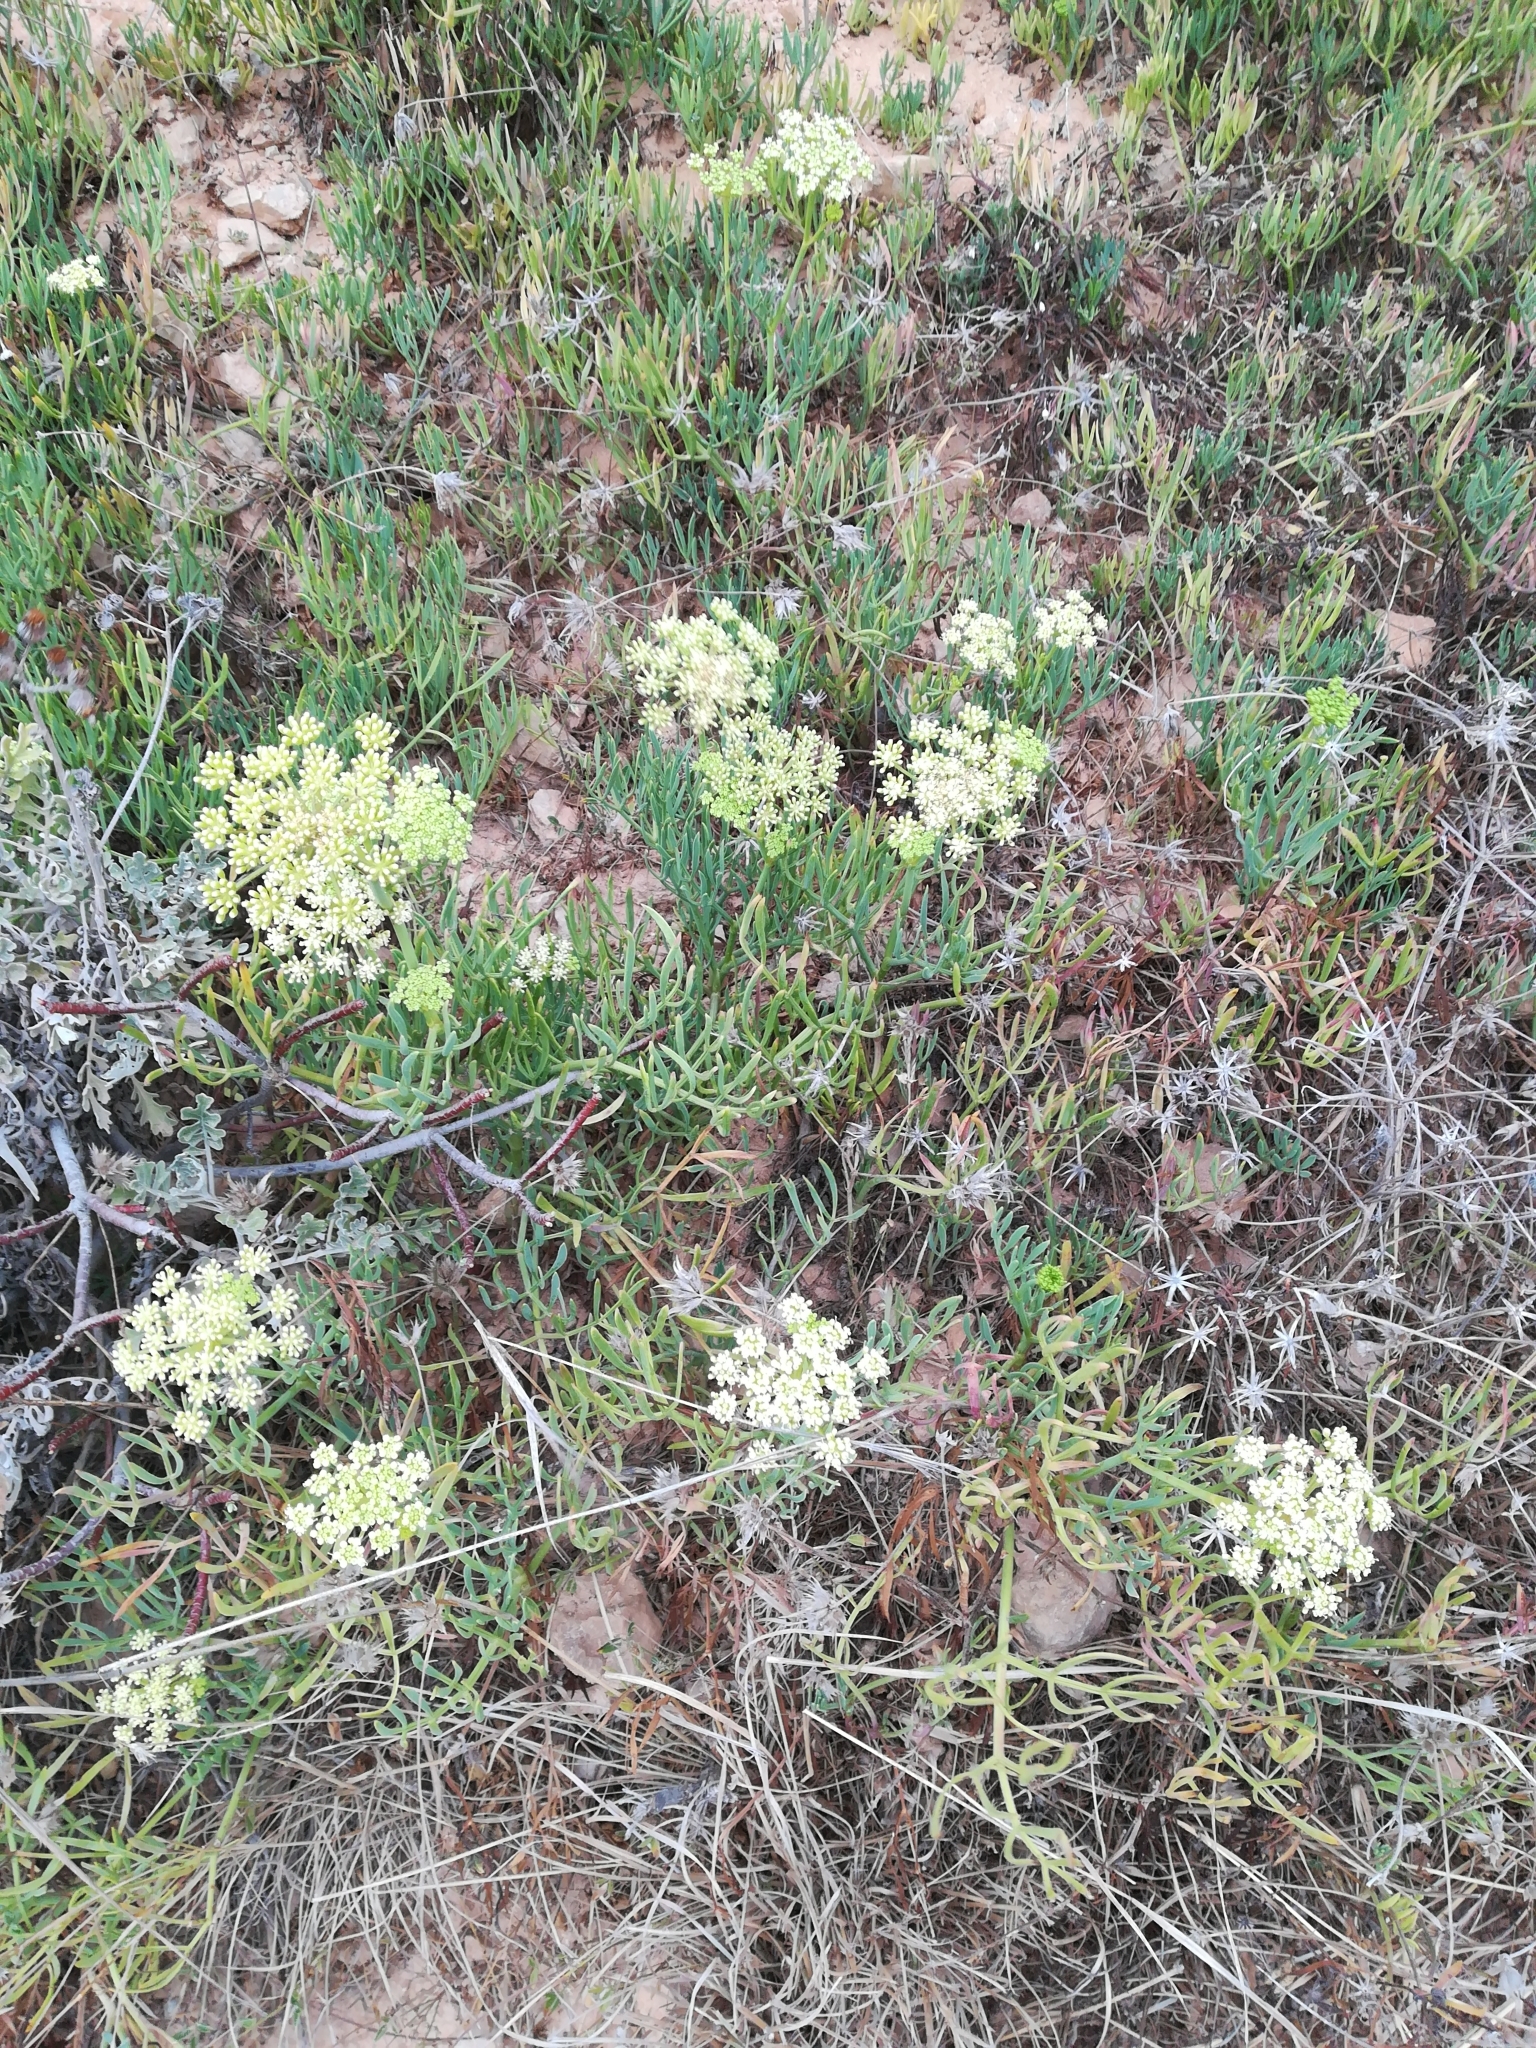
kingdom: Plantae
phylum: Tracheophyta
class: Magnoliopsida
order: Apiales
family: Apiaceae
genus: Crithmum
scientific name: Crithmum maritimum
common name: Rock samphire
